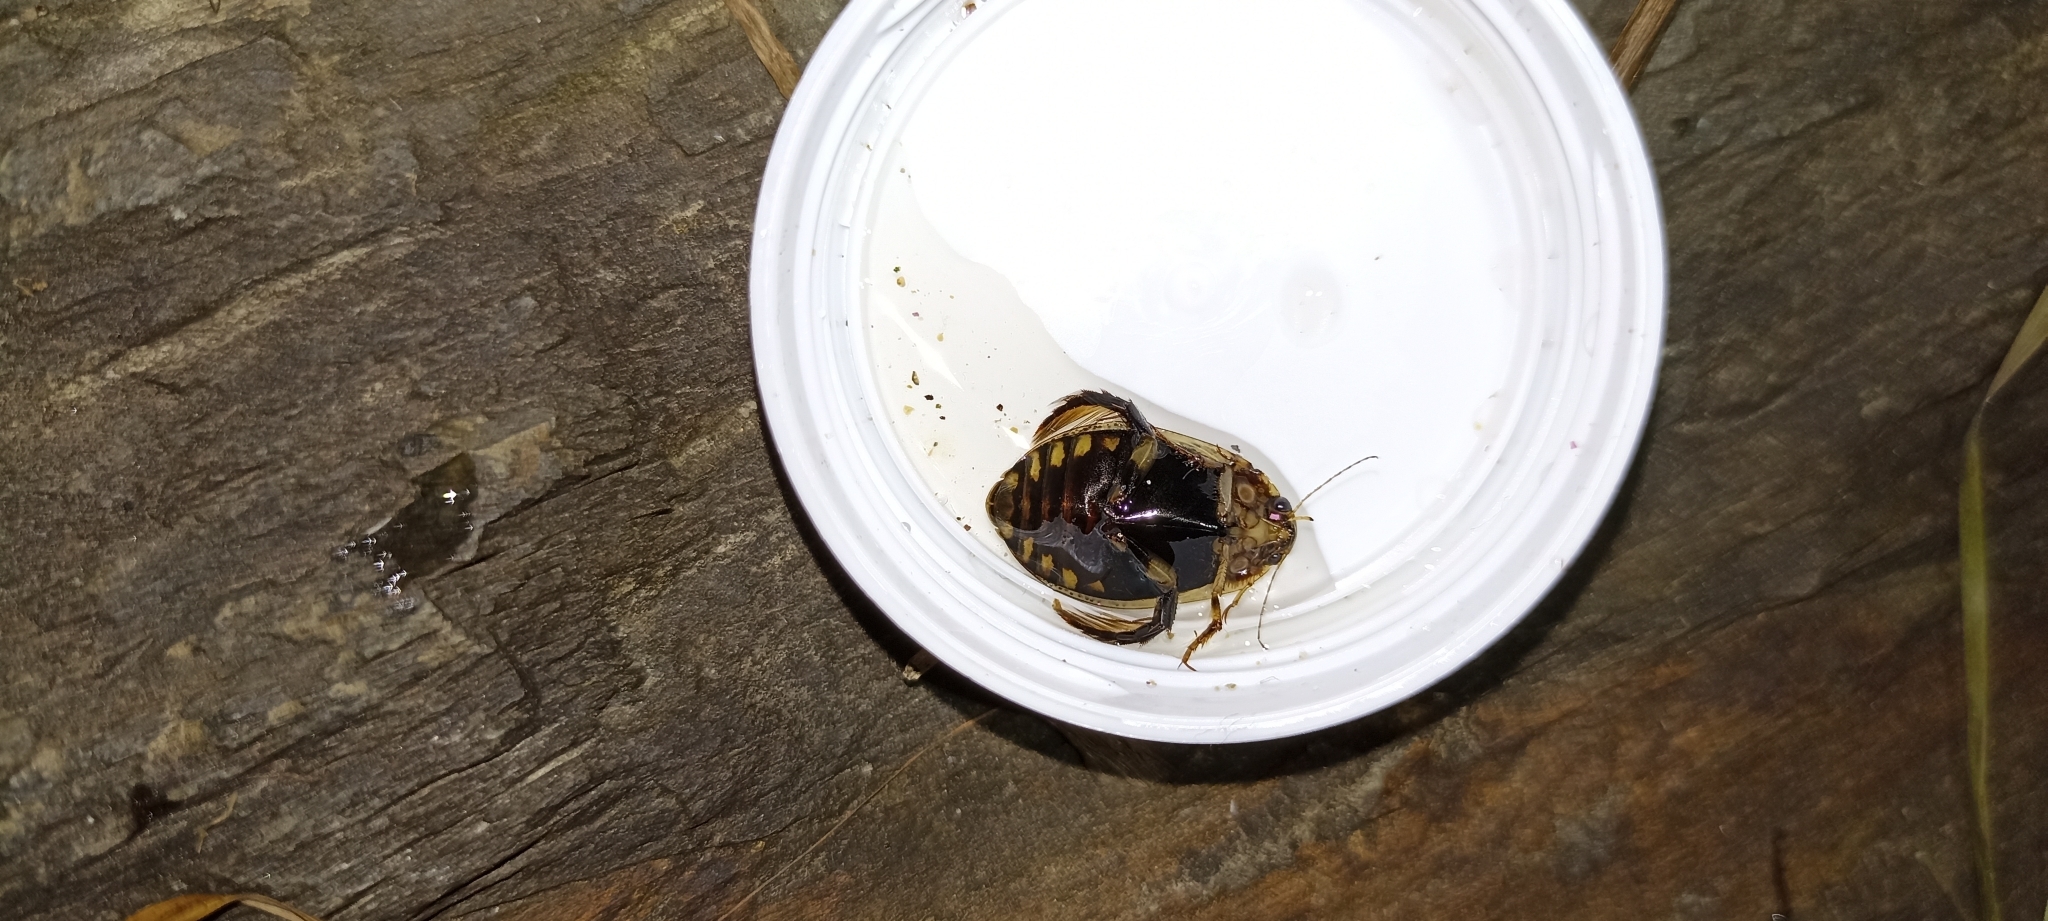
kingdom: Animalia
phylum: Arthropoda
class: Insecta
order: Coleoptera
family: Dytiscidae
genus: Acilius
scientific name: Acilius sulcatus
